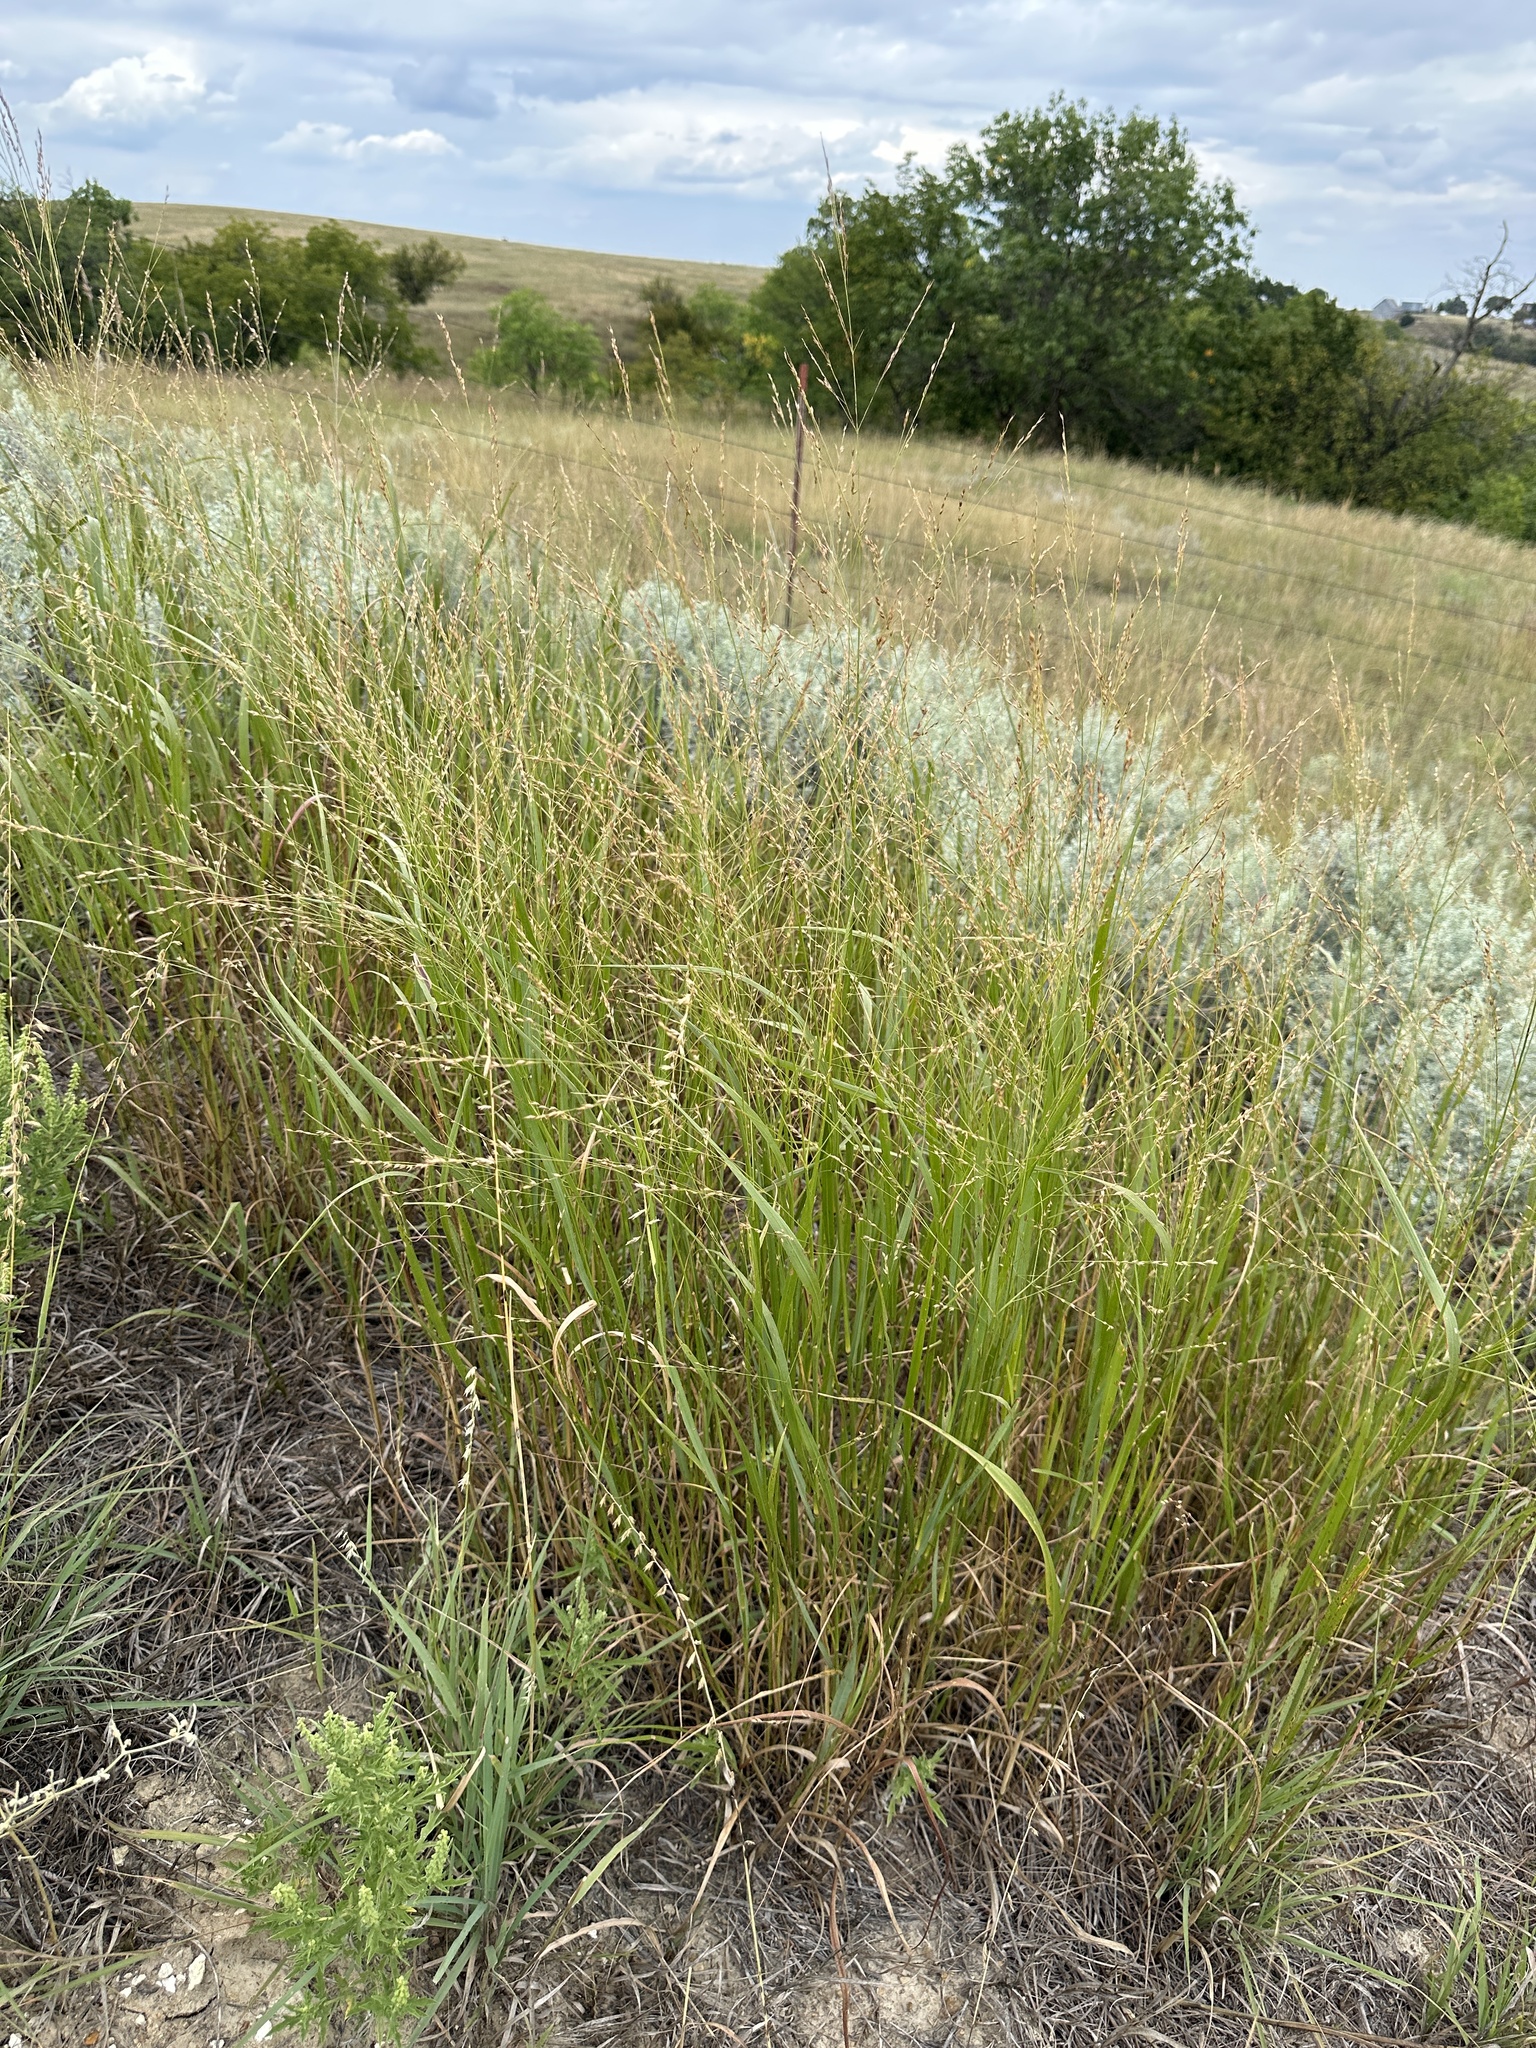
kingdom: Plantae
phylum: Tracheophyta
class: Liliopsida
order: Poales
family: Poaceae
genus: Panicum
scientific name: Panicum virgatum
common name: Switchgrass
